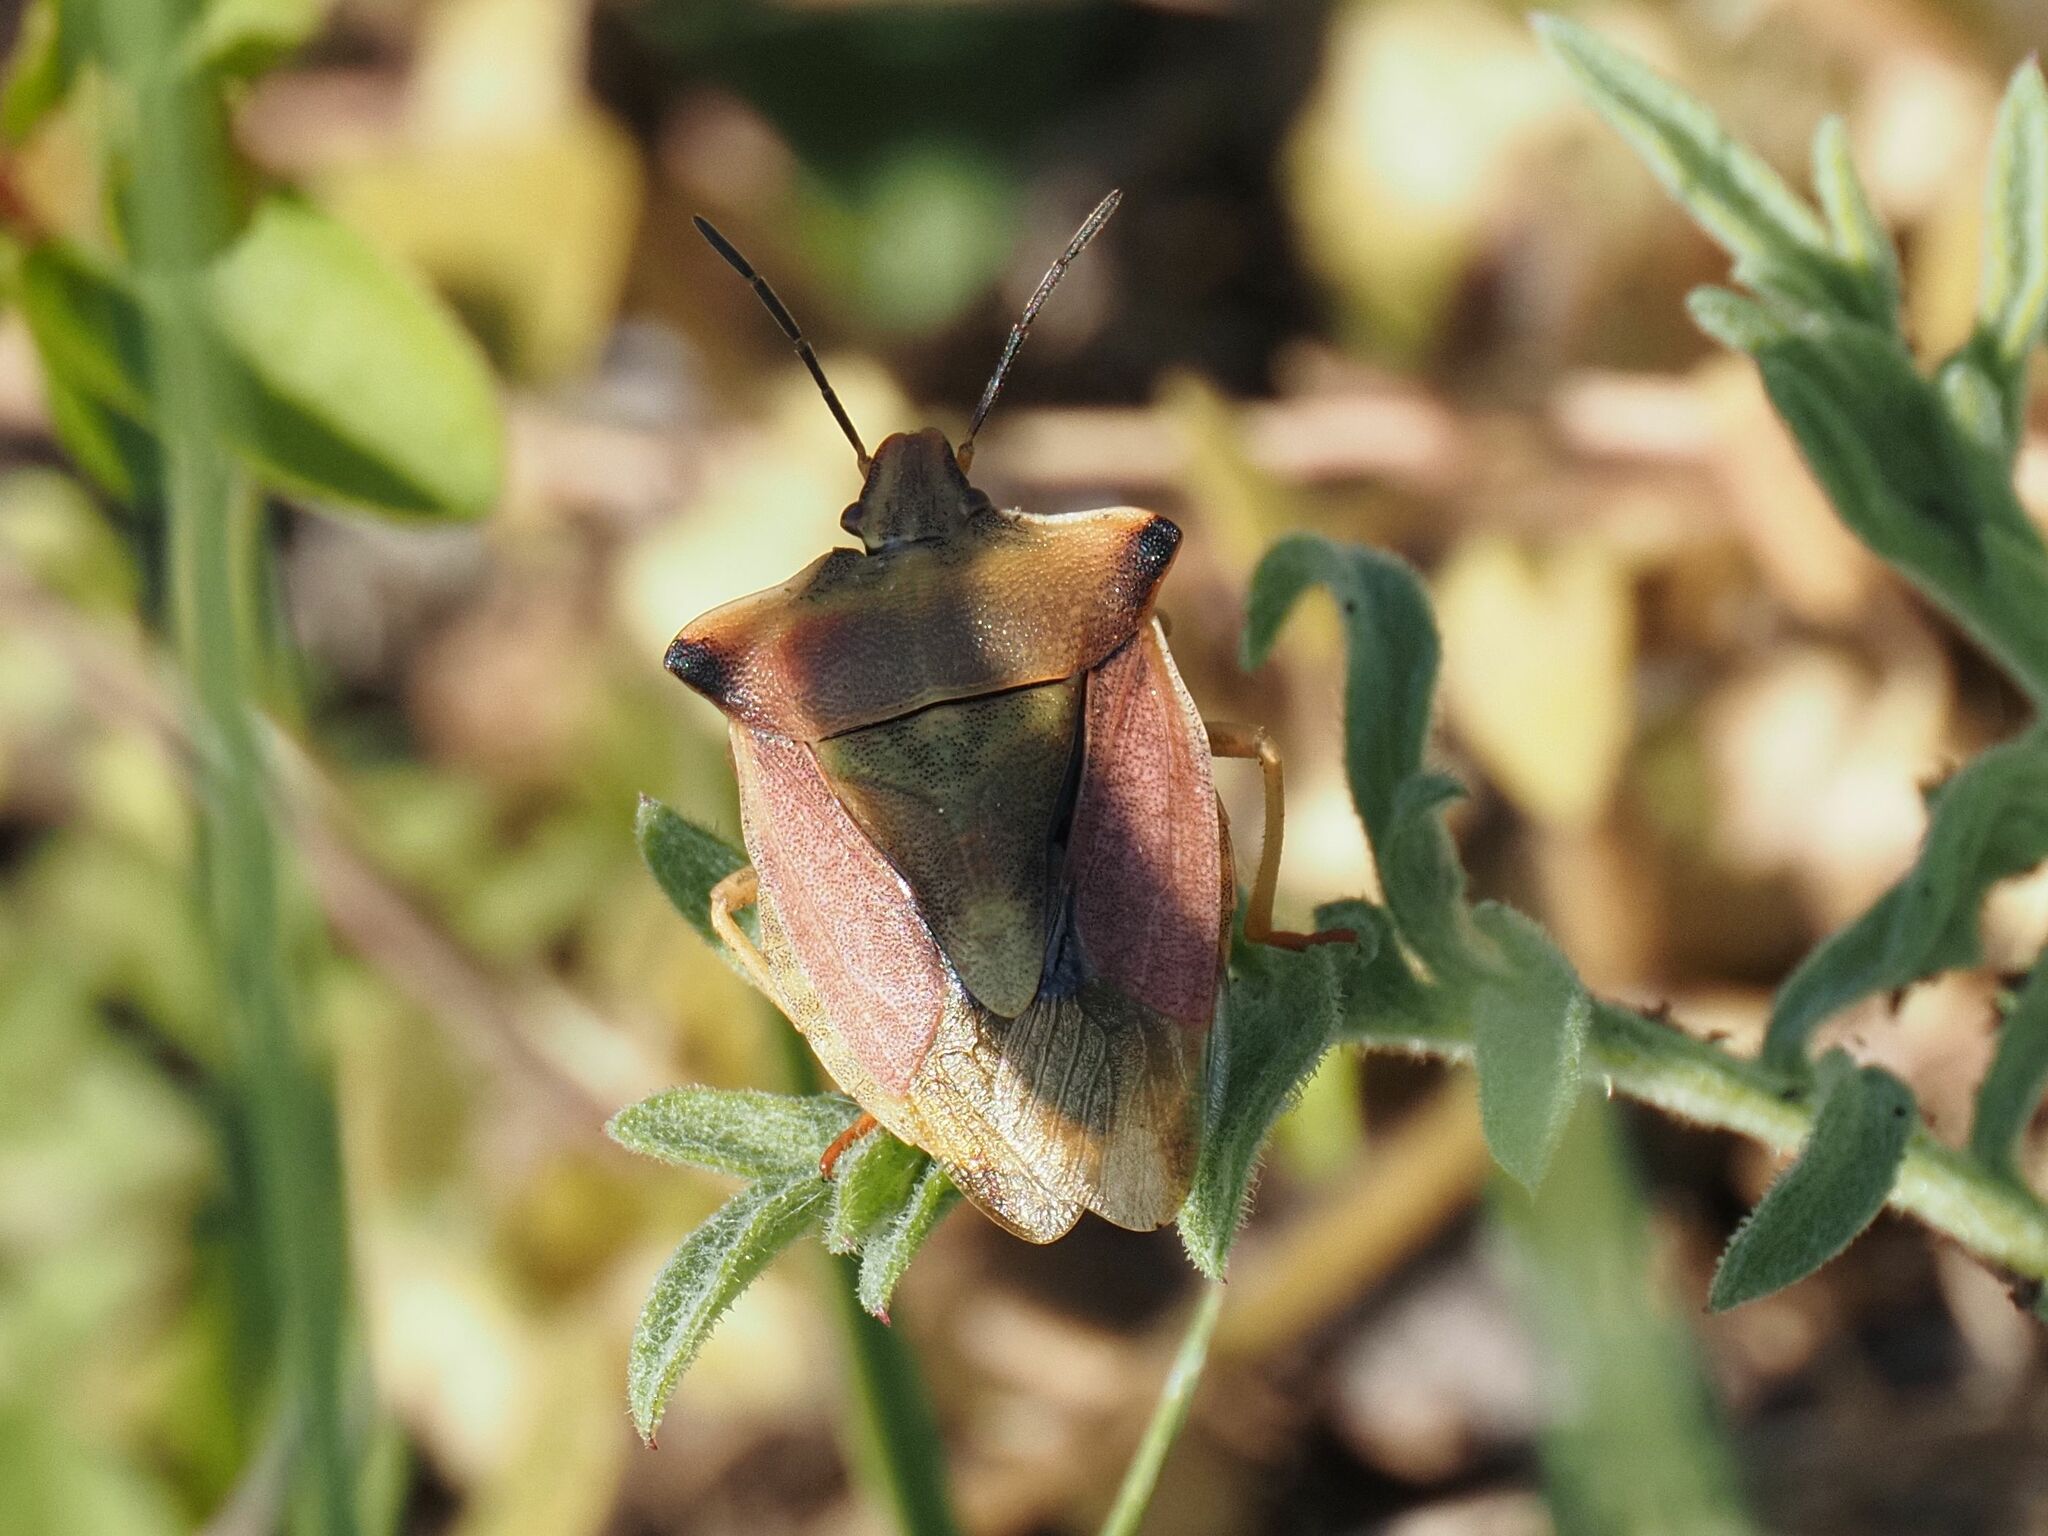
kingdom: Animalia
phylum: Arthropoda
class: Insecta
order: Hemiptera
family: Pentatomidae
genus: Carpocoris
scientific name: Carpocoris fuscispinus
